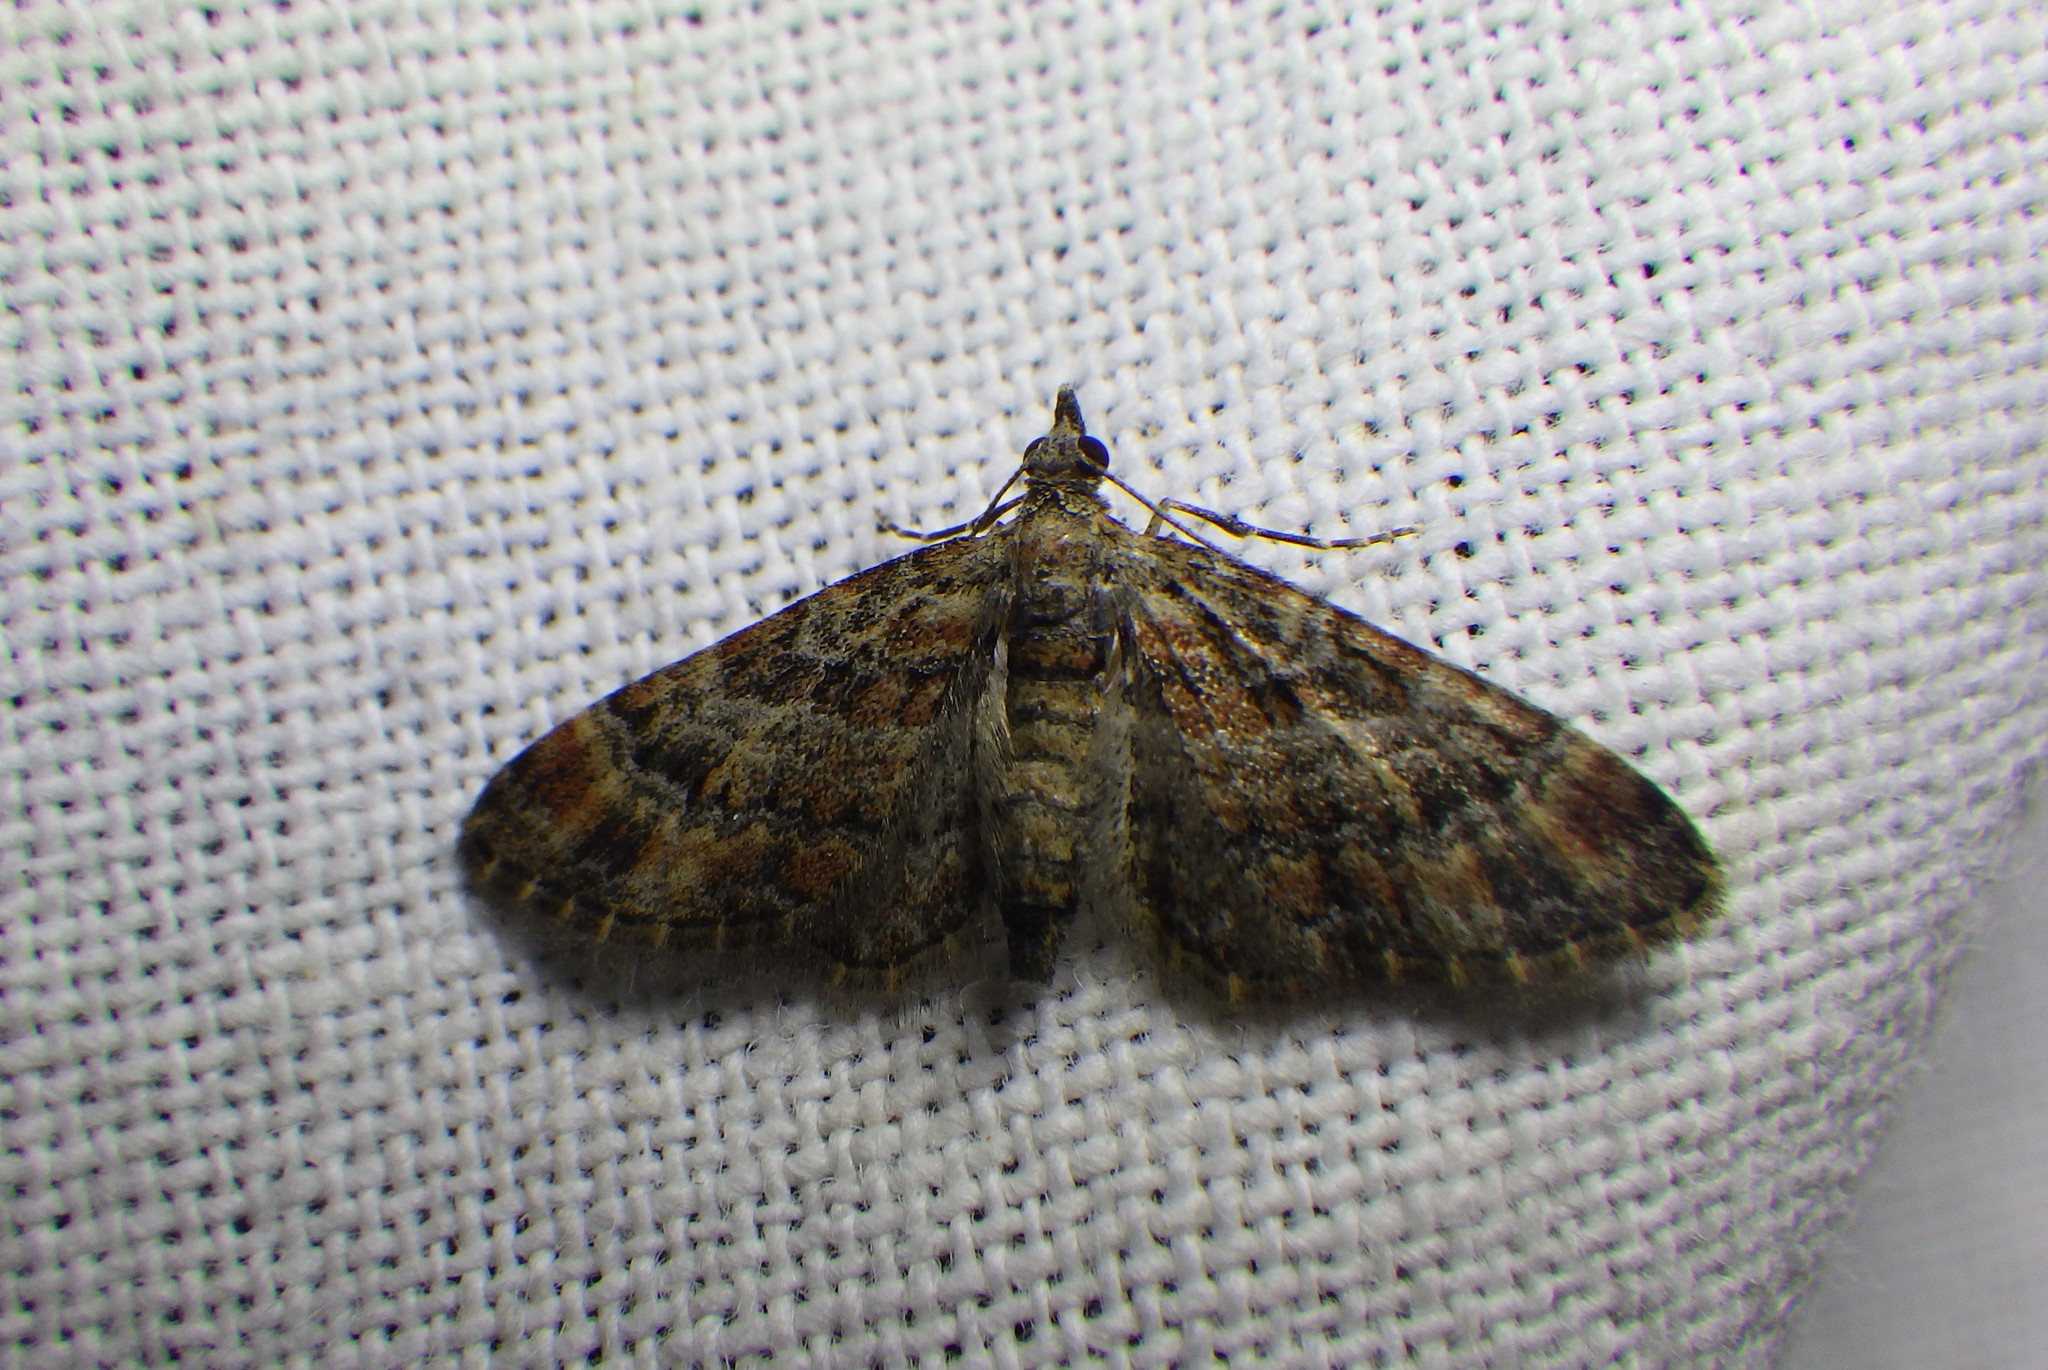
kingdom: Animalia
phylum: Arthropoda
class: Insecta
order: Lepidoptera
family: Geometridae
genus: Gymnoscelis
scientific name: Gymnoscelis rufifasciata
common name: Double-striped pug
